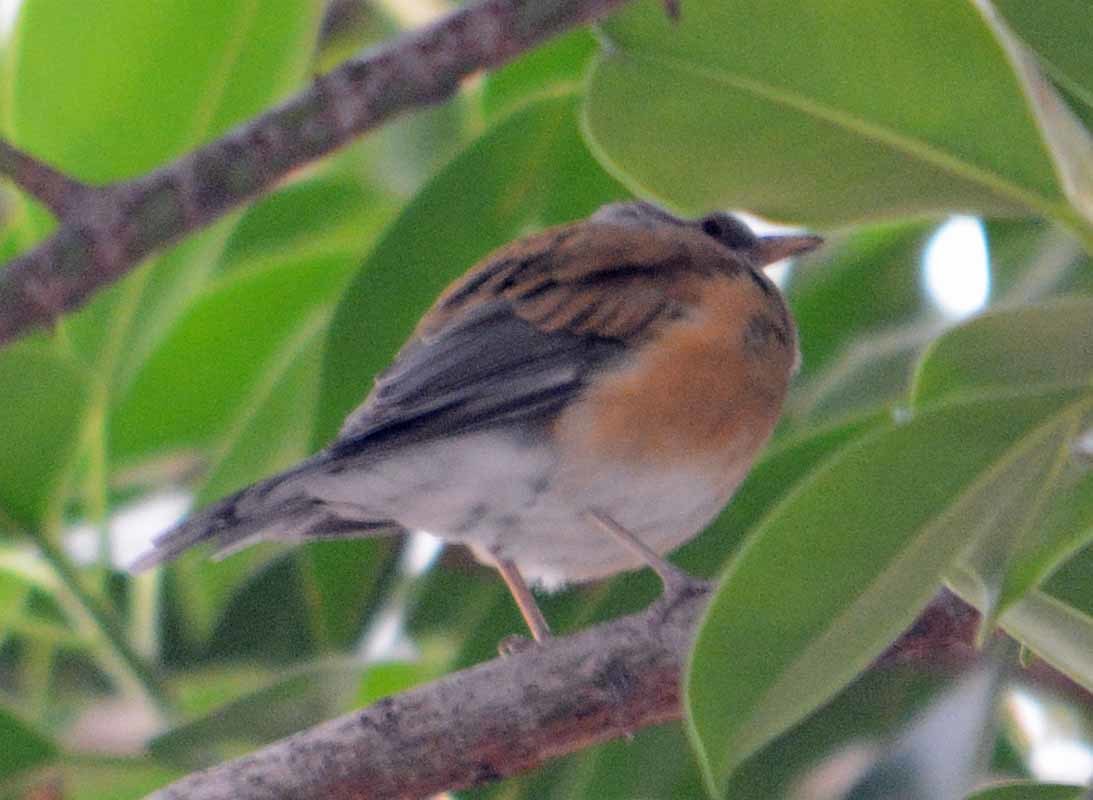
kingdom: Animalia
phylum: Chordata
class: Aves
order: Passeriformes
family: Turdidae
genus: Turdus
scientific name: Turdus rufopalliatus
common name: Rufous-backed robin
